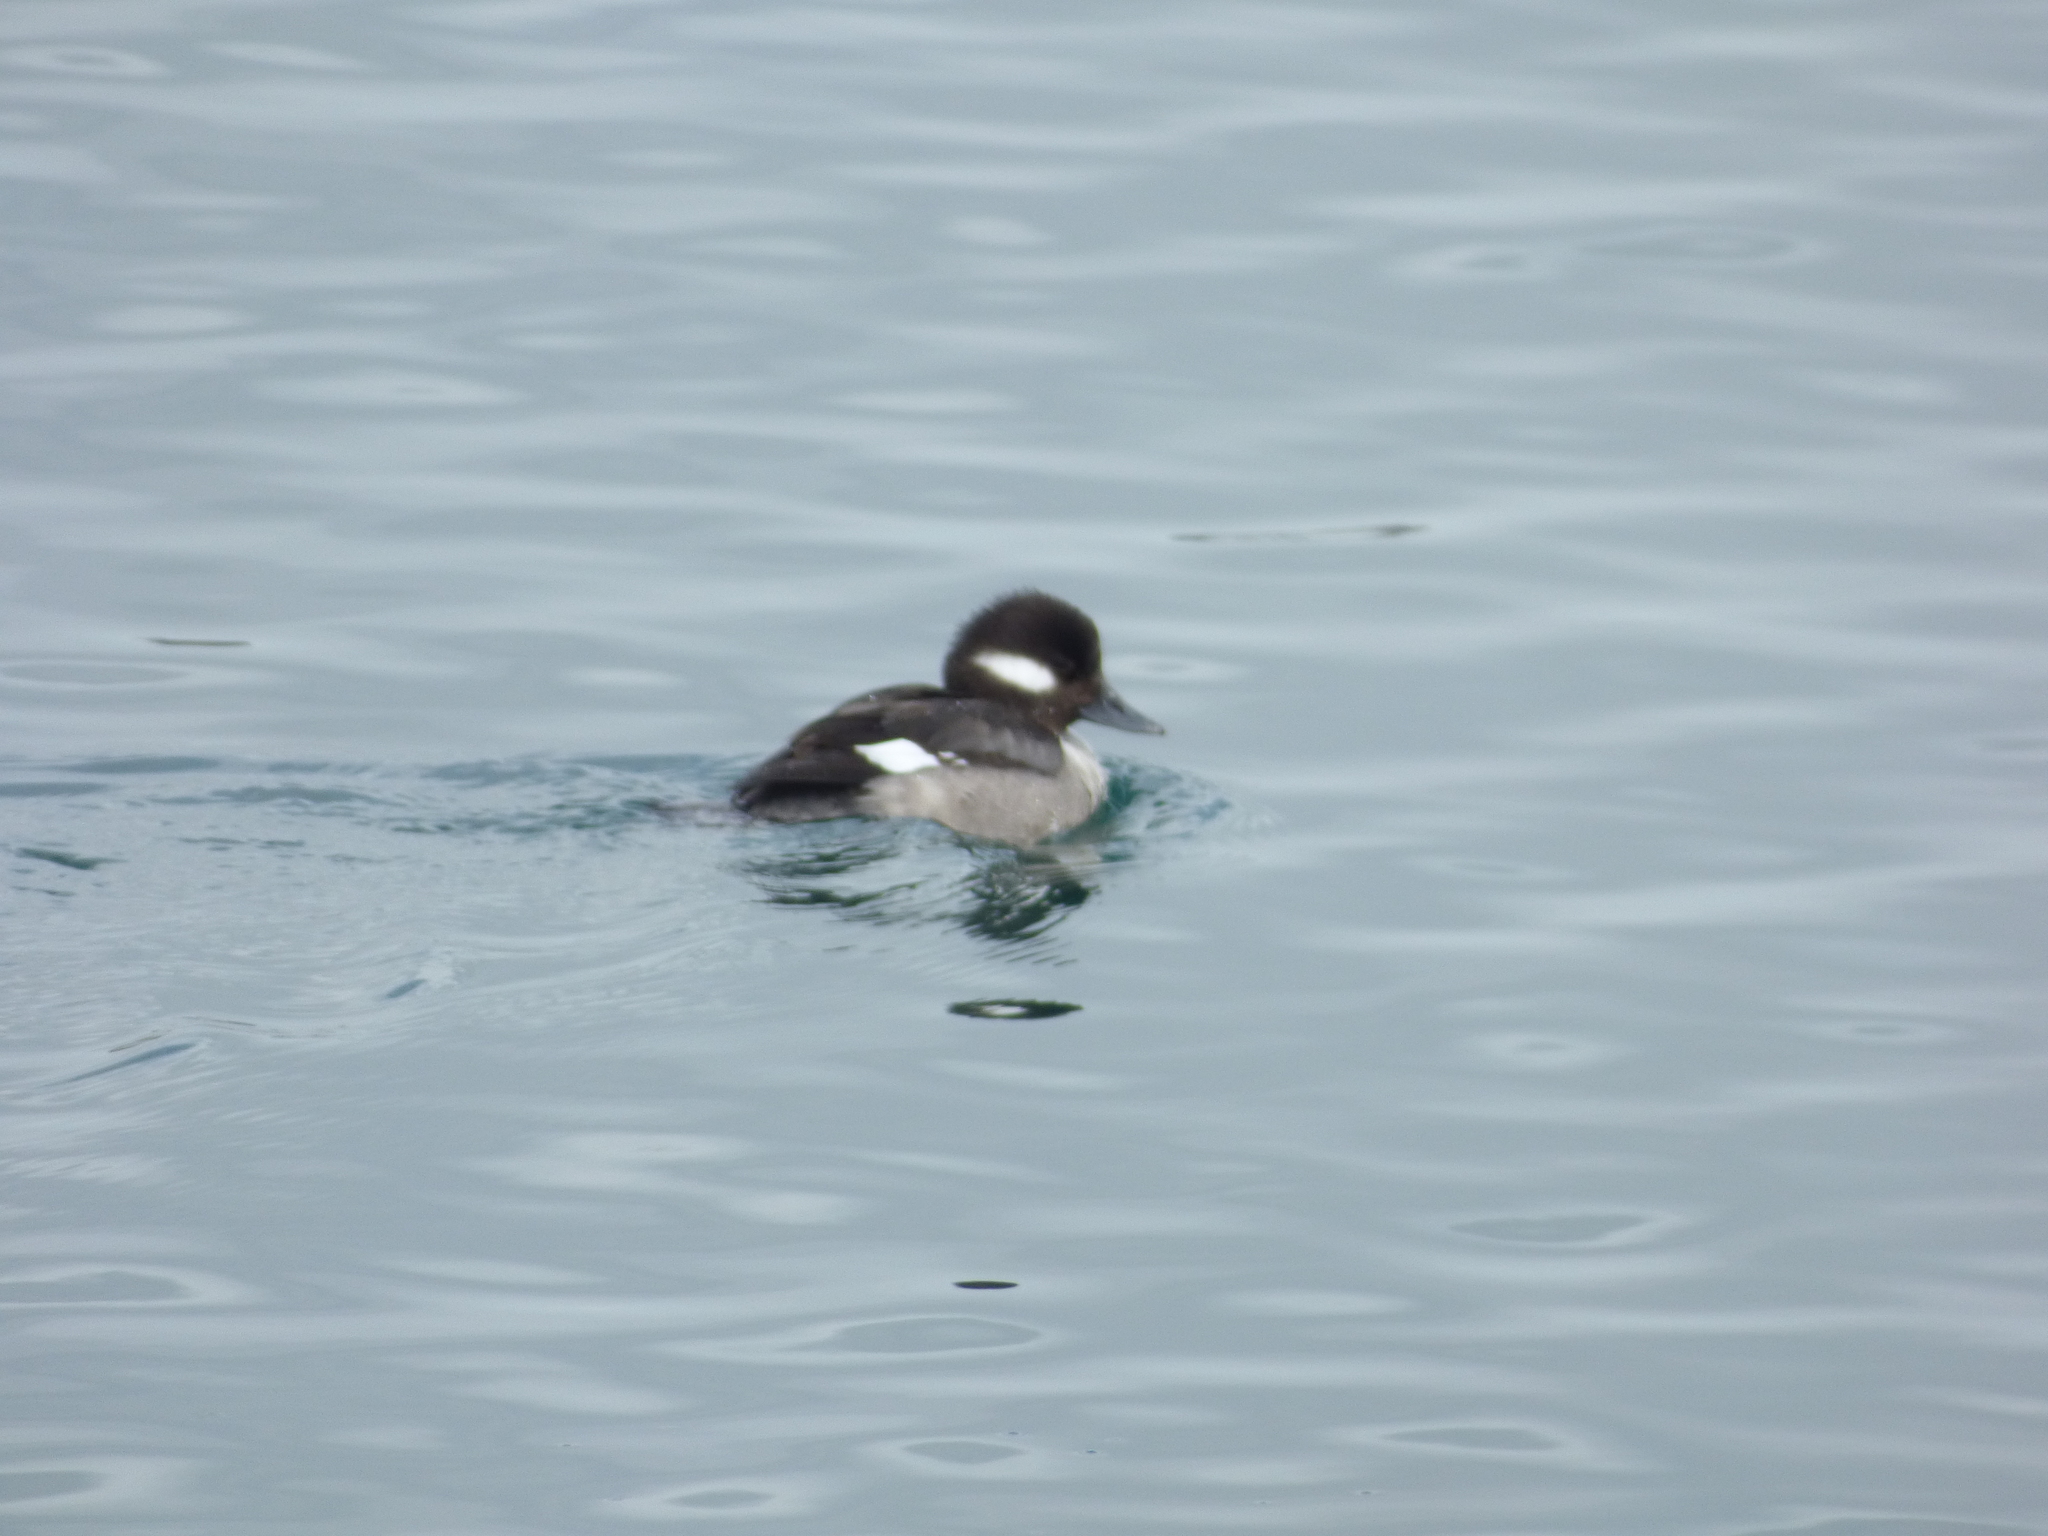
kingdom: Animalia
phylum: Chordata
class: Aves
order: Anseriformes
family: Anatidae
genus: Bucephala
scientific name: Bucephala albeola
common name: Bufflehead
